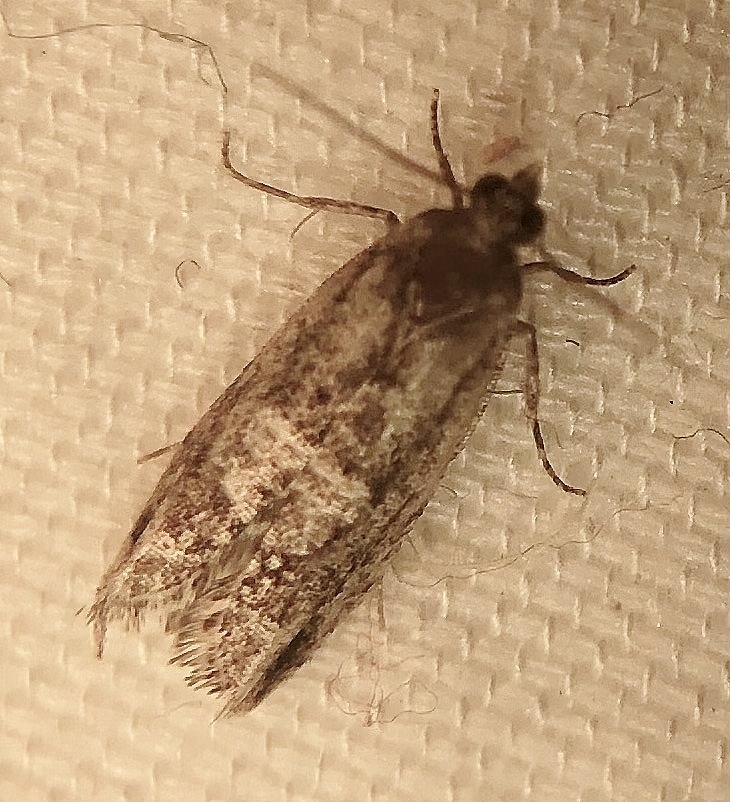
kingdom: Animalia
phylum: Arthropoda
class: Insecta
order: Lepidoptera
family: Tortricidae
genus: Chimoptesis
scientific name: Chimoptesis gerulae
